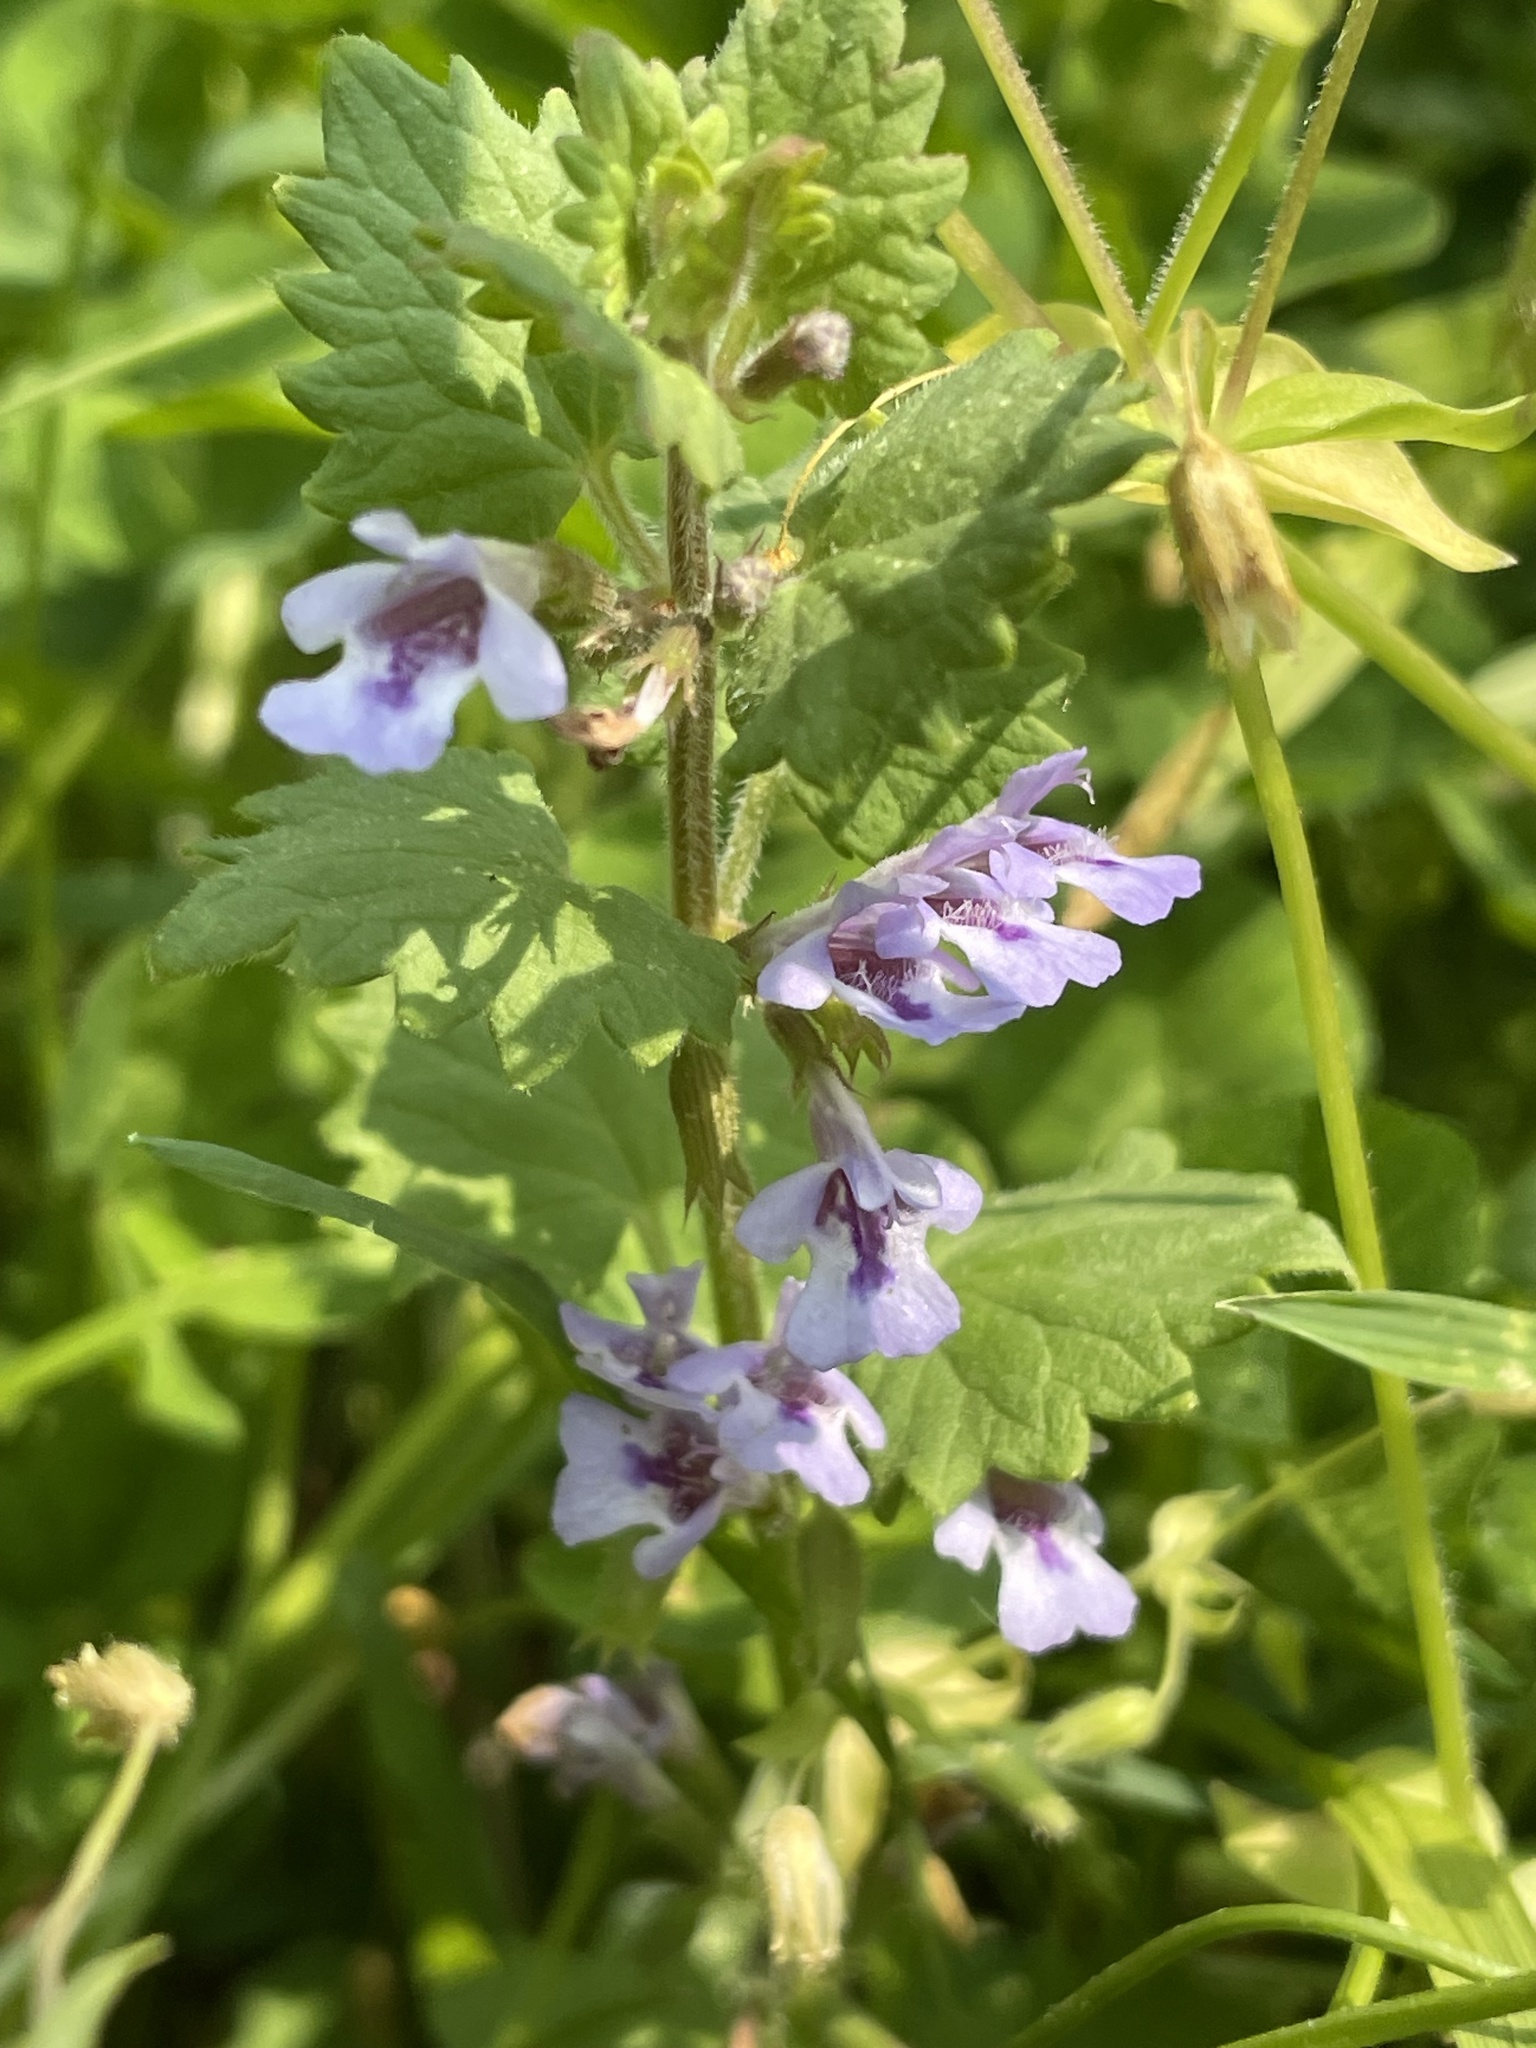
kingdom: Plantae
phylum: Tracheophyta
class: Magnoliopsida
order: Lamiales
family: Lamiaceae
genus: Glechoma
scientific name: Glechoma hederacea
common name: Ground ivy
